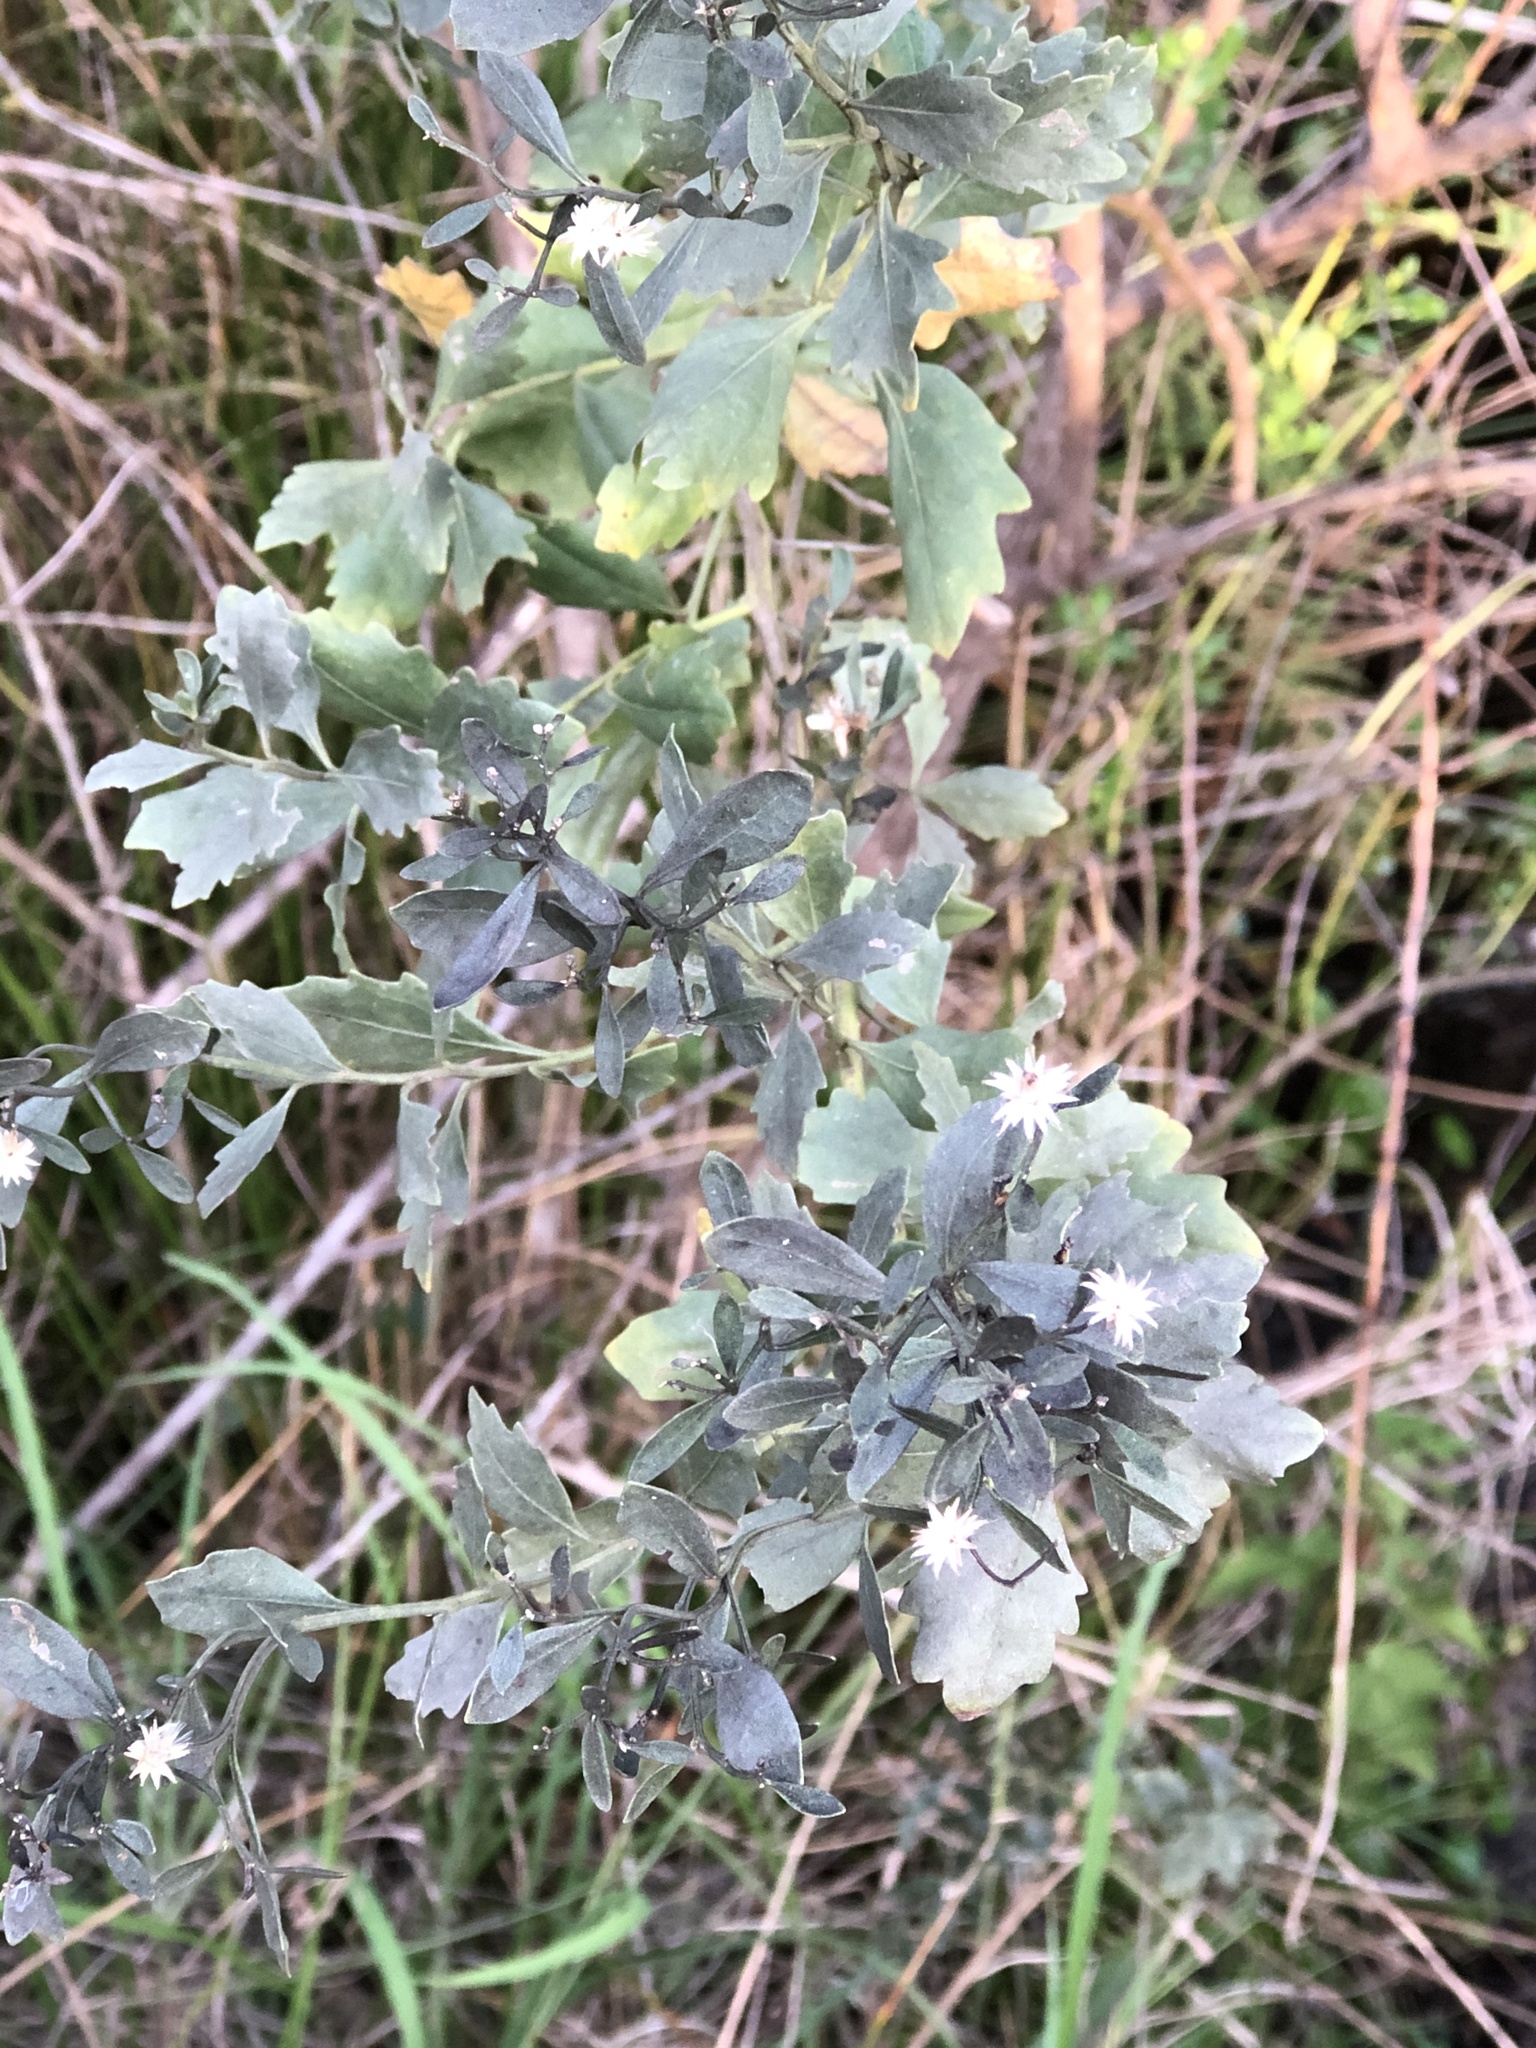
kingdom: Plantae
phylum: Tracheophyta
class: Magnoliopsida
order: Asterales
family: Asteraceae
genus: Baccharis
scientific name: Baccharis halimifolia
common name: Eastern baccharis
